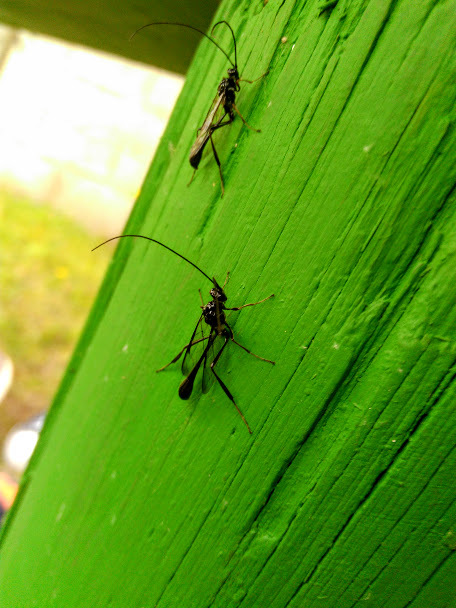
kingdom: Animalia
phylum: Arthropoda
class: Insecta
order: Hymenoptera
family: Pelecinidae
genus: Pelecinus
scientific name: Pelecinus
